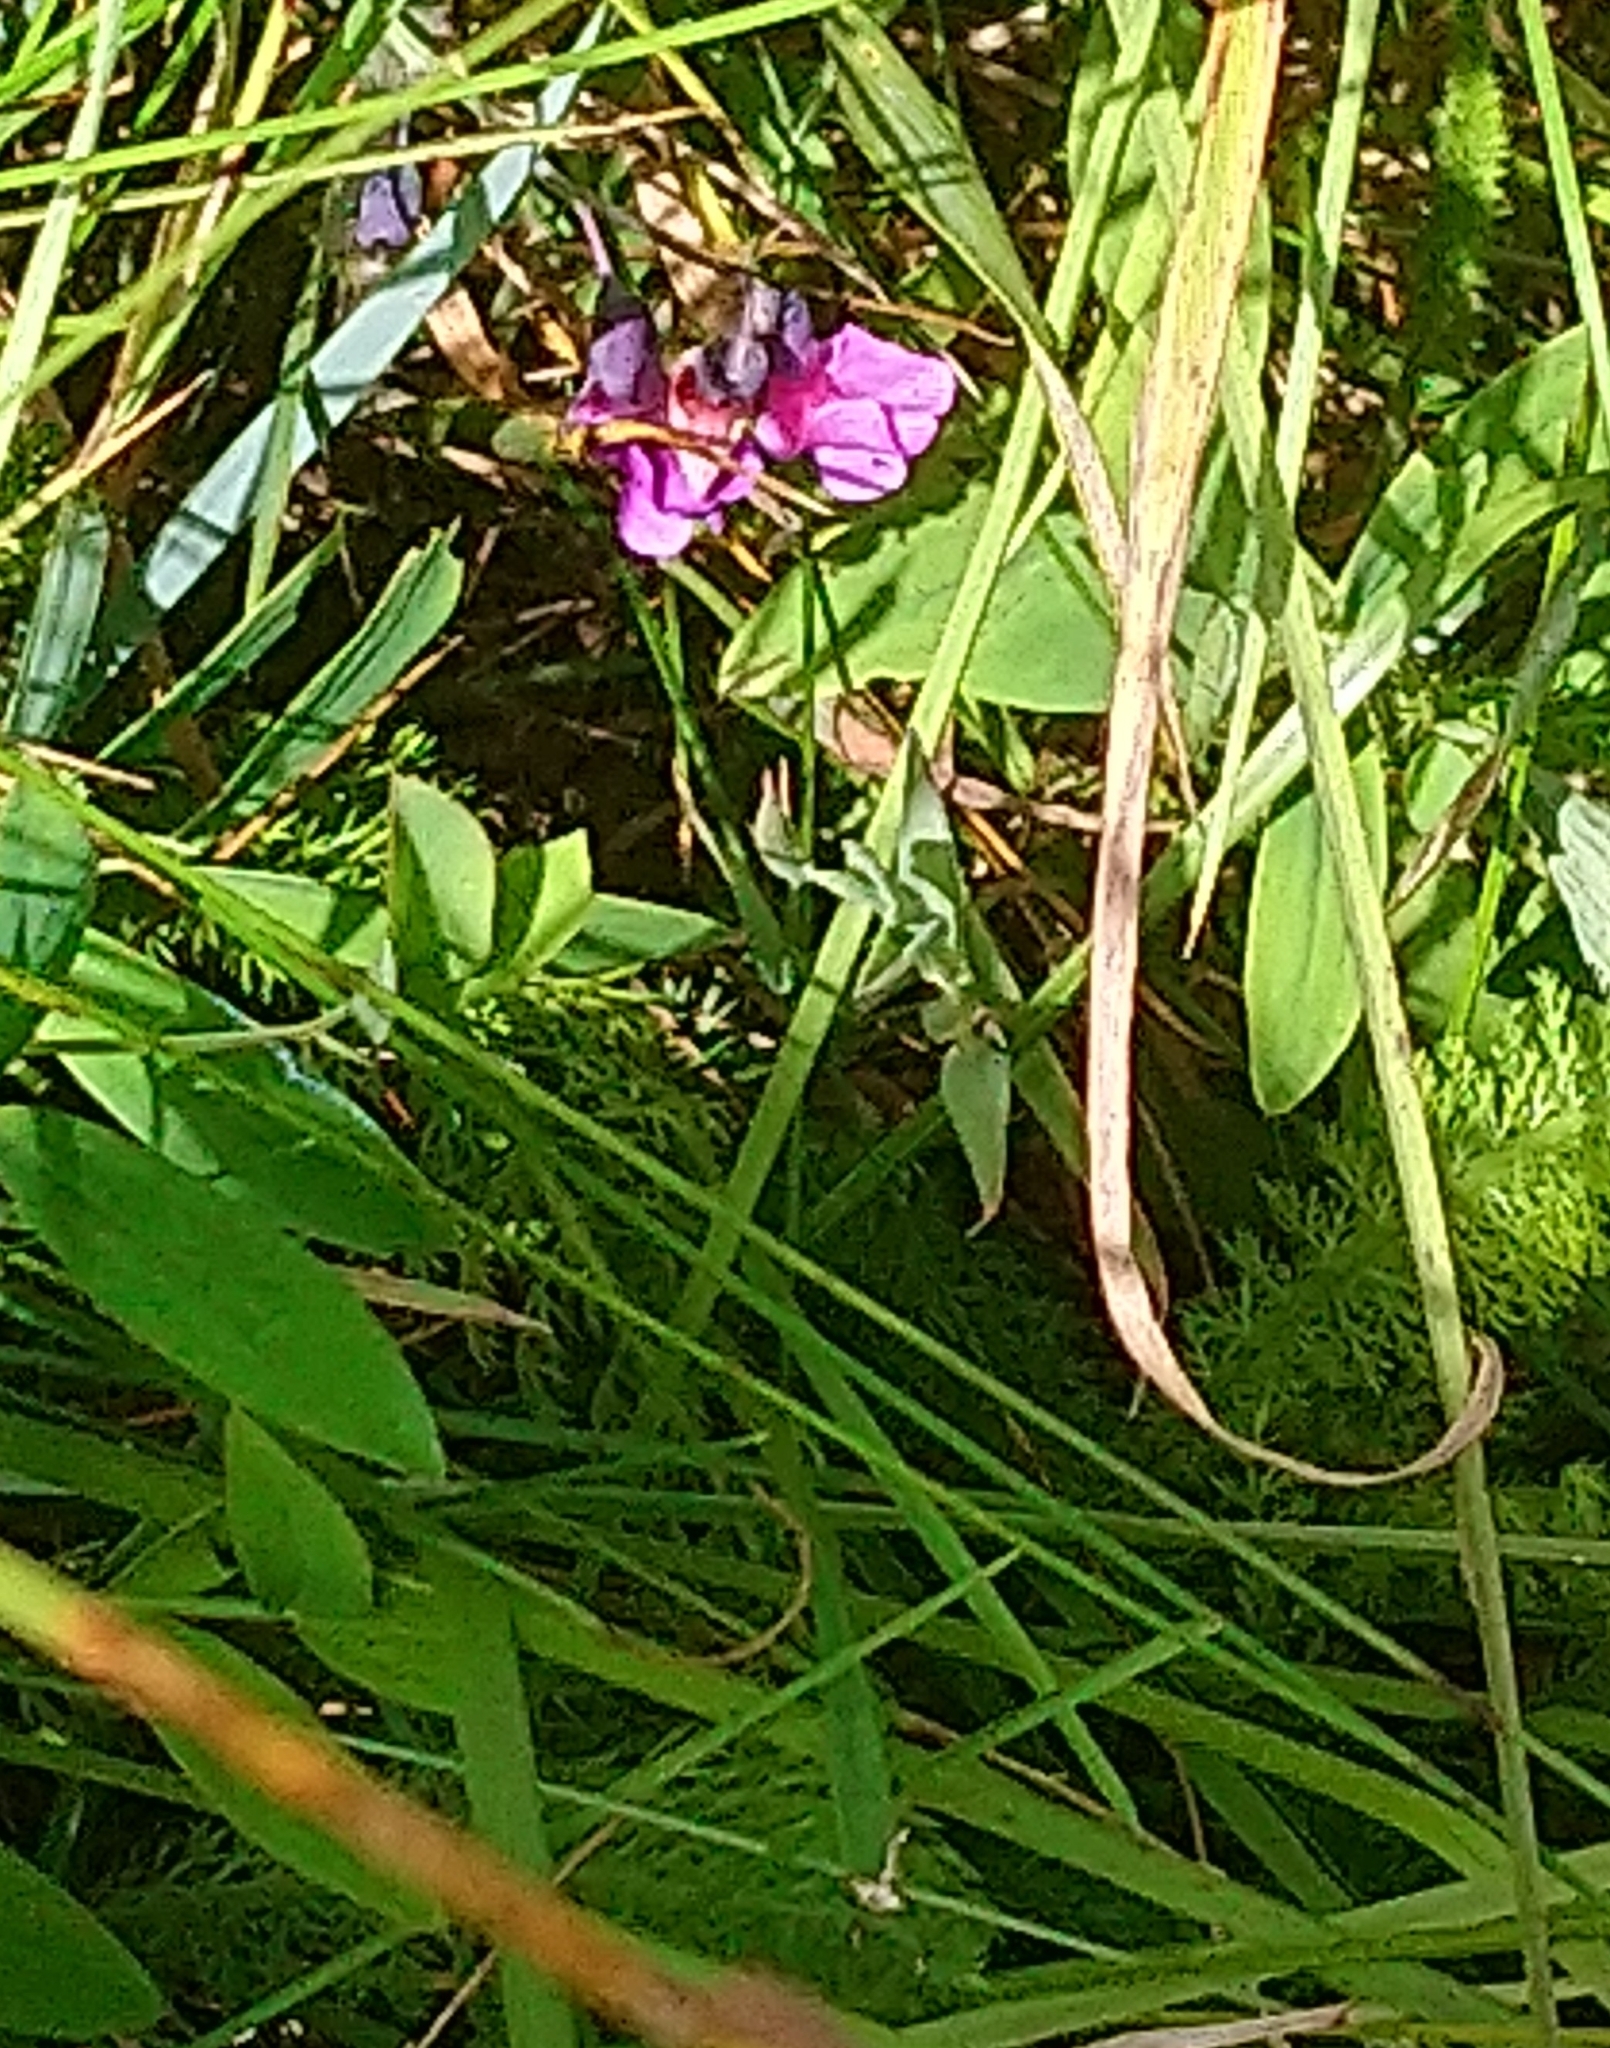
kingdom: Plantae
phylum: Tracheophyta
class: Magnoliopsida
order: Fabales
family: Fabaceae
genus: Lathyrus
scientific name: Lathyrus linifolius
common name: Bitter-vetch
